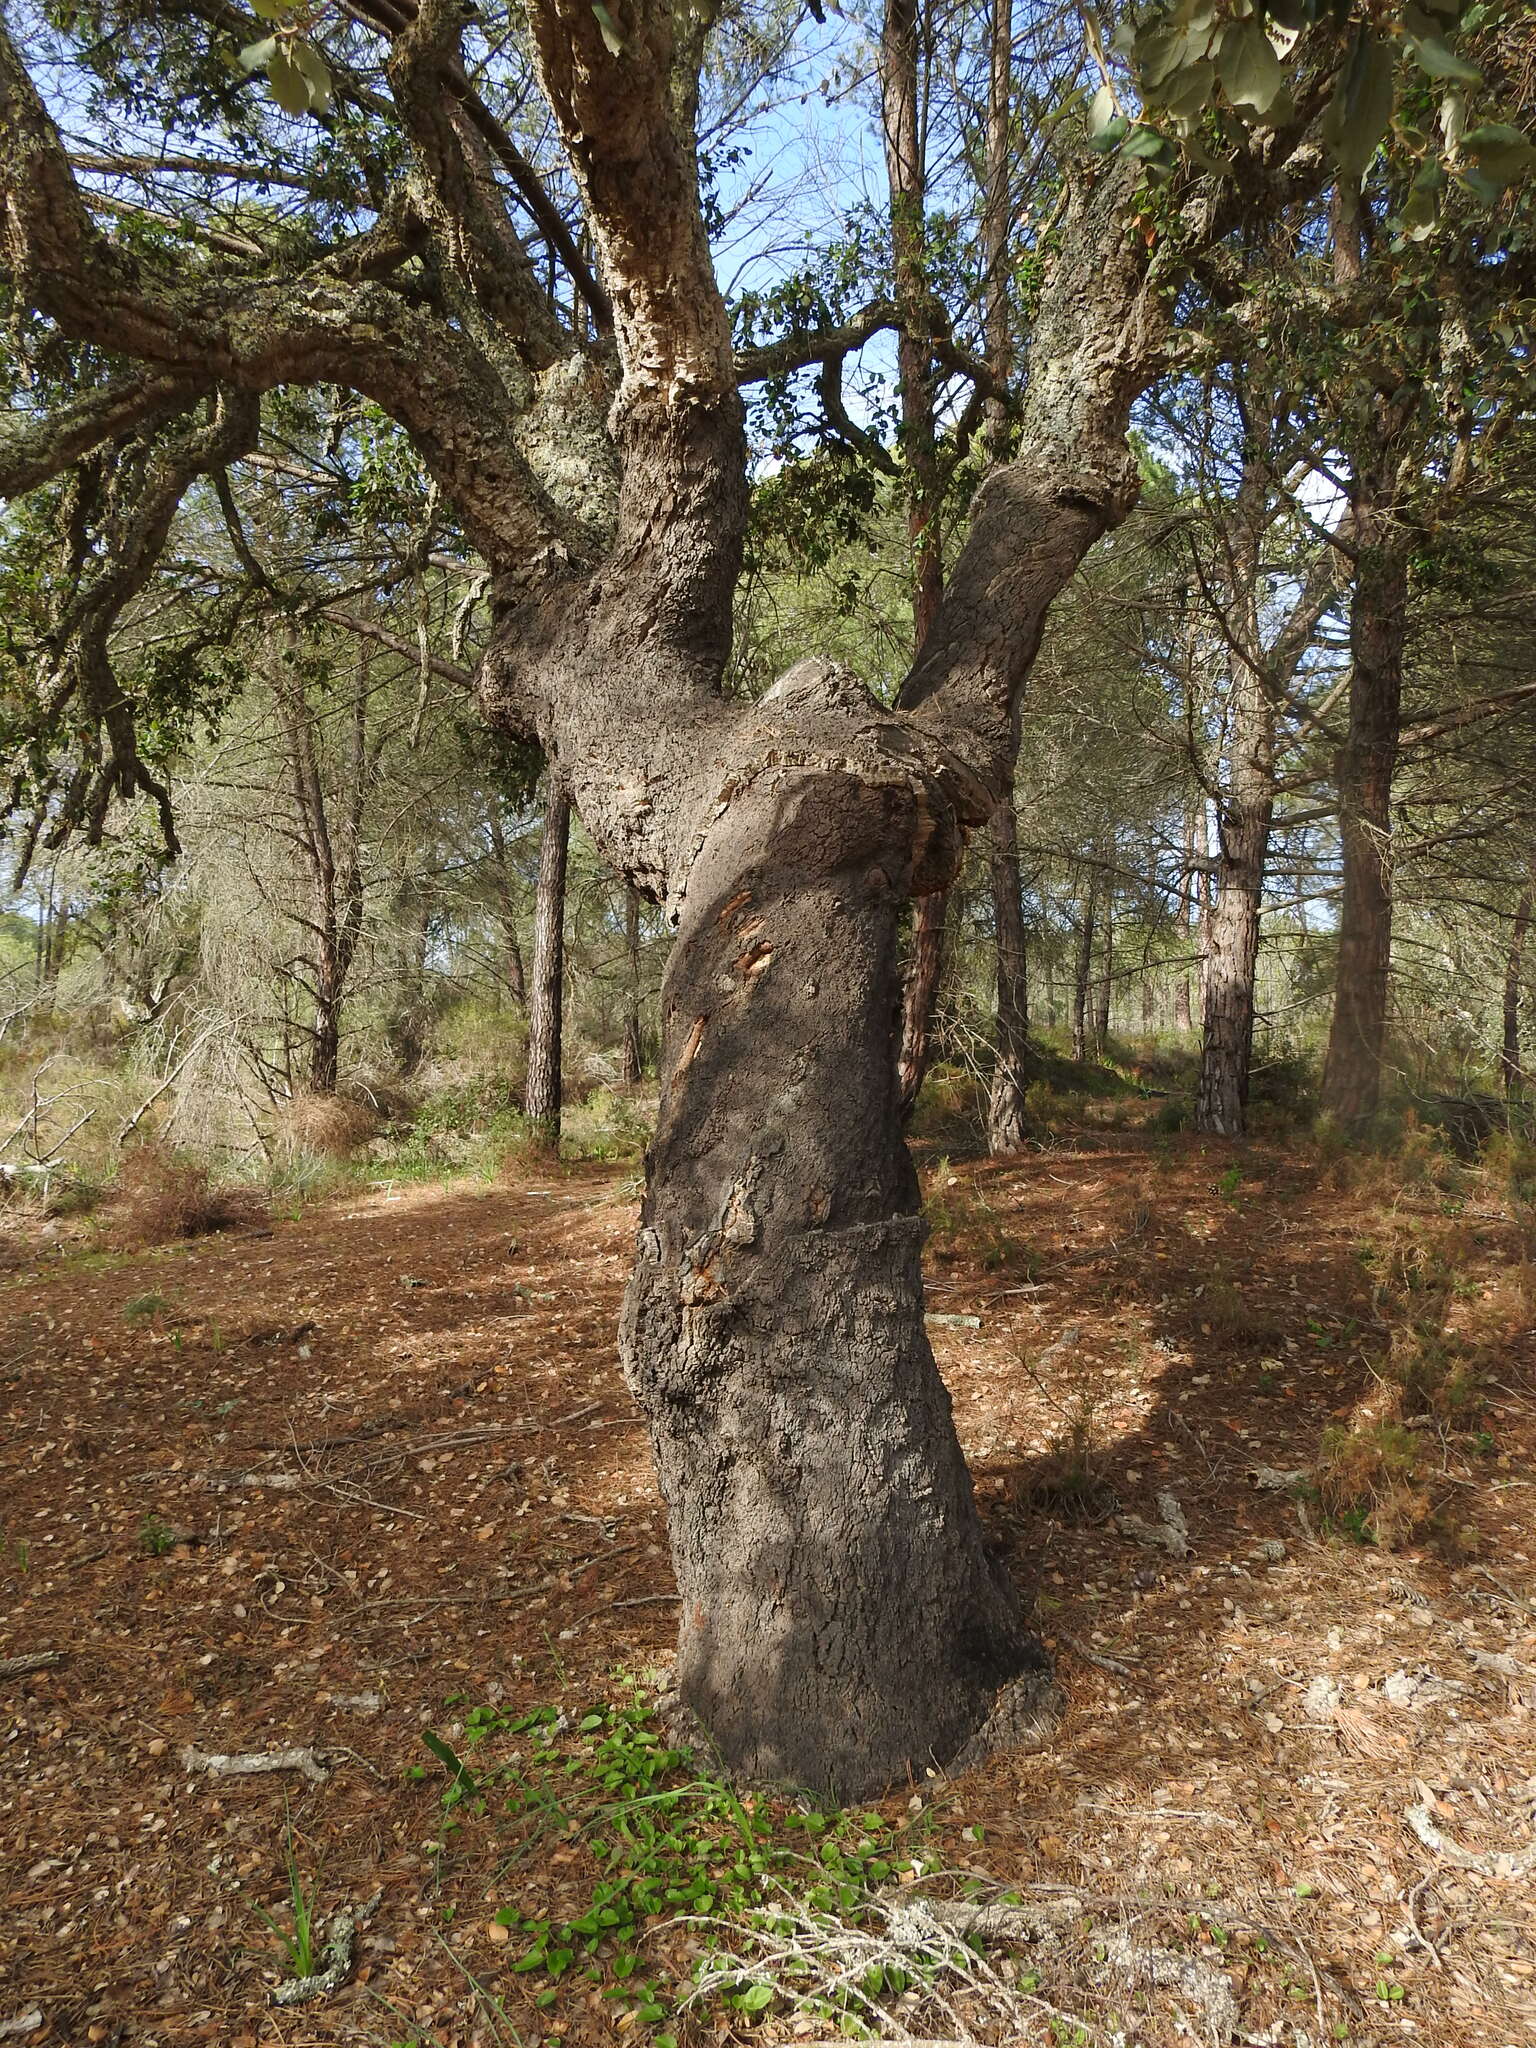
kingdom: Plantae
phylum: Tracheophyta
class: Magnoliopsida
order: Fagales
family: Fagaceae
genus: Quercus
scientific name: Quercus suber
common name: Cork oak
